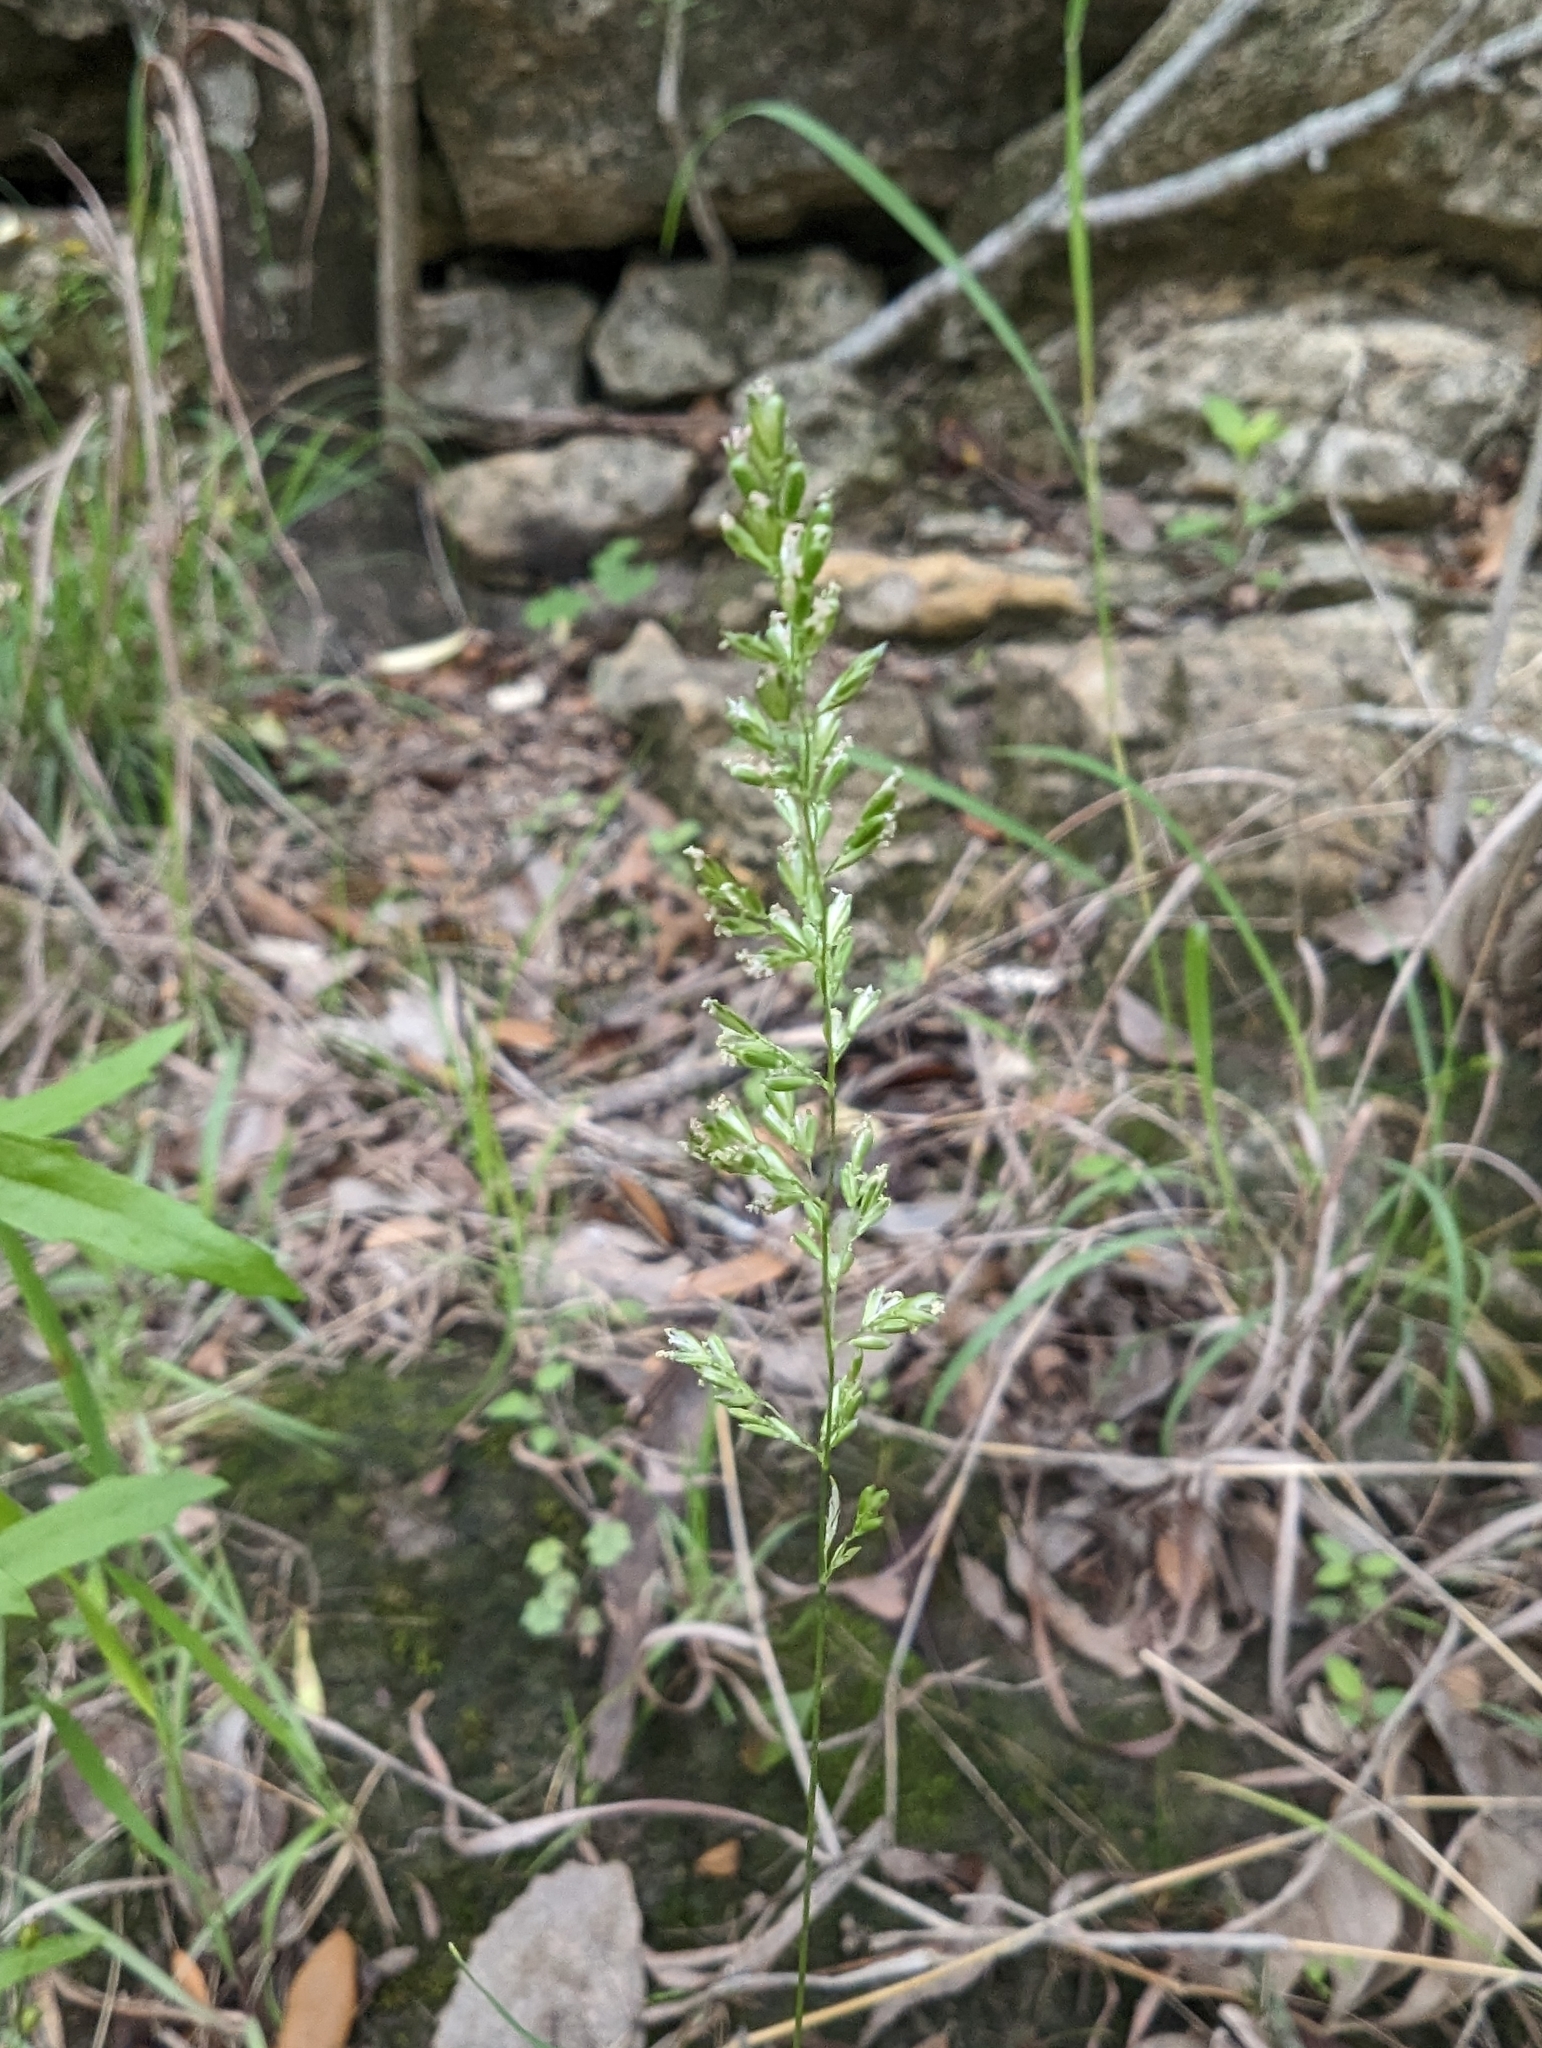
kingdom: Plantae
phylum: Tracheophyta
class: Liliopsida
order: Poales
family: Poaceae
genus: Sphenopholis
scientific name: Sphenopholis obtusata
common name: Prairie grass
